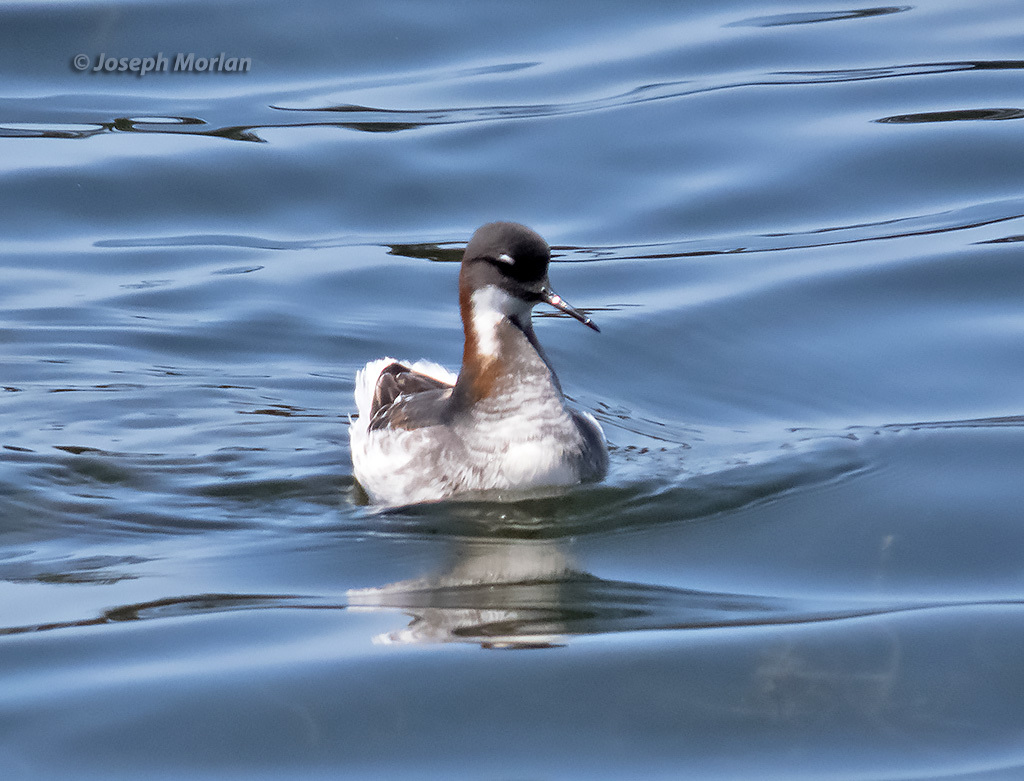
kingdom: Animalia
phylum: Chordata
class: Aves
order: Charadriiformes
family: Scolopacidae
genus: Phalaropus
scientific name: Phalaropus lobatus
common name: Red-necked phalarope
